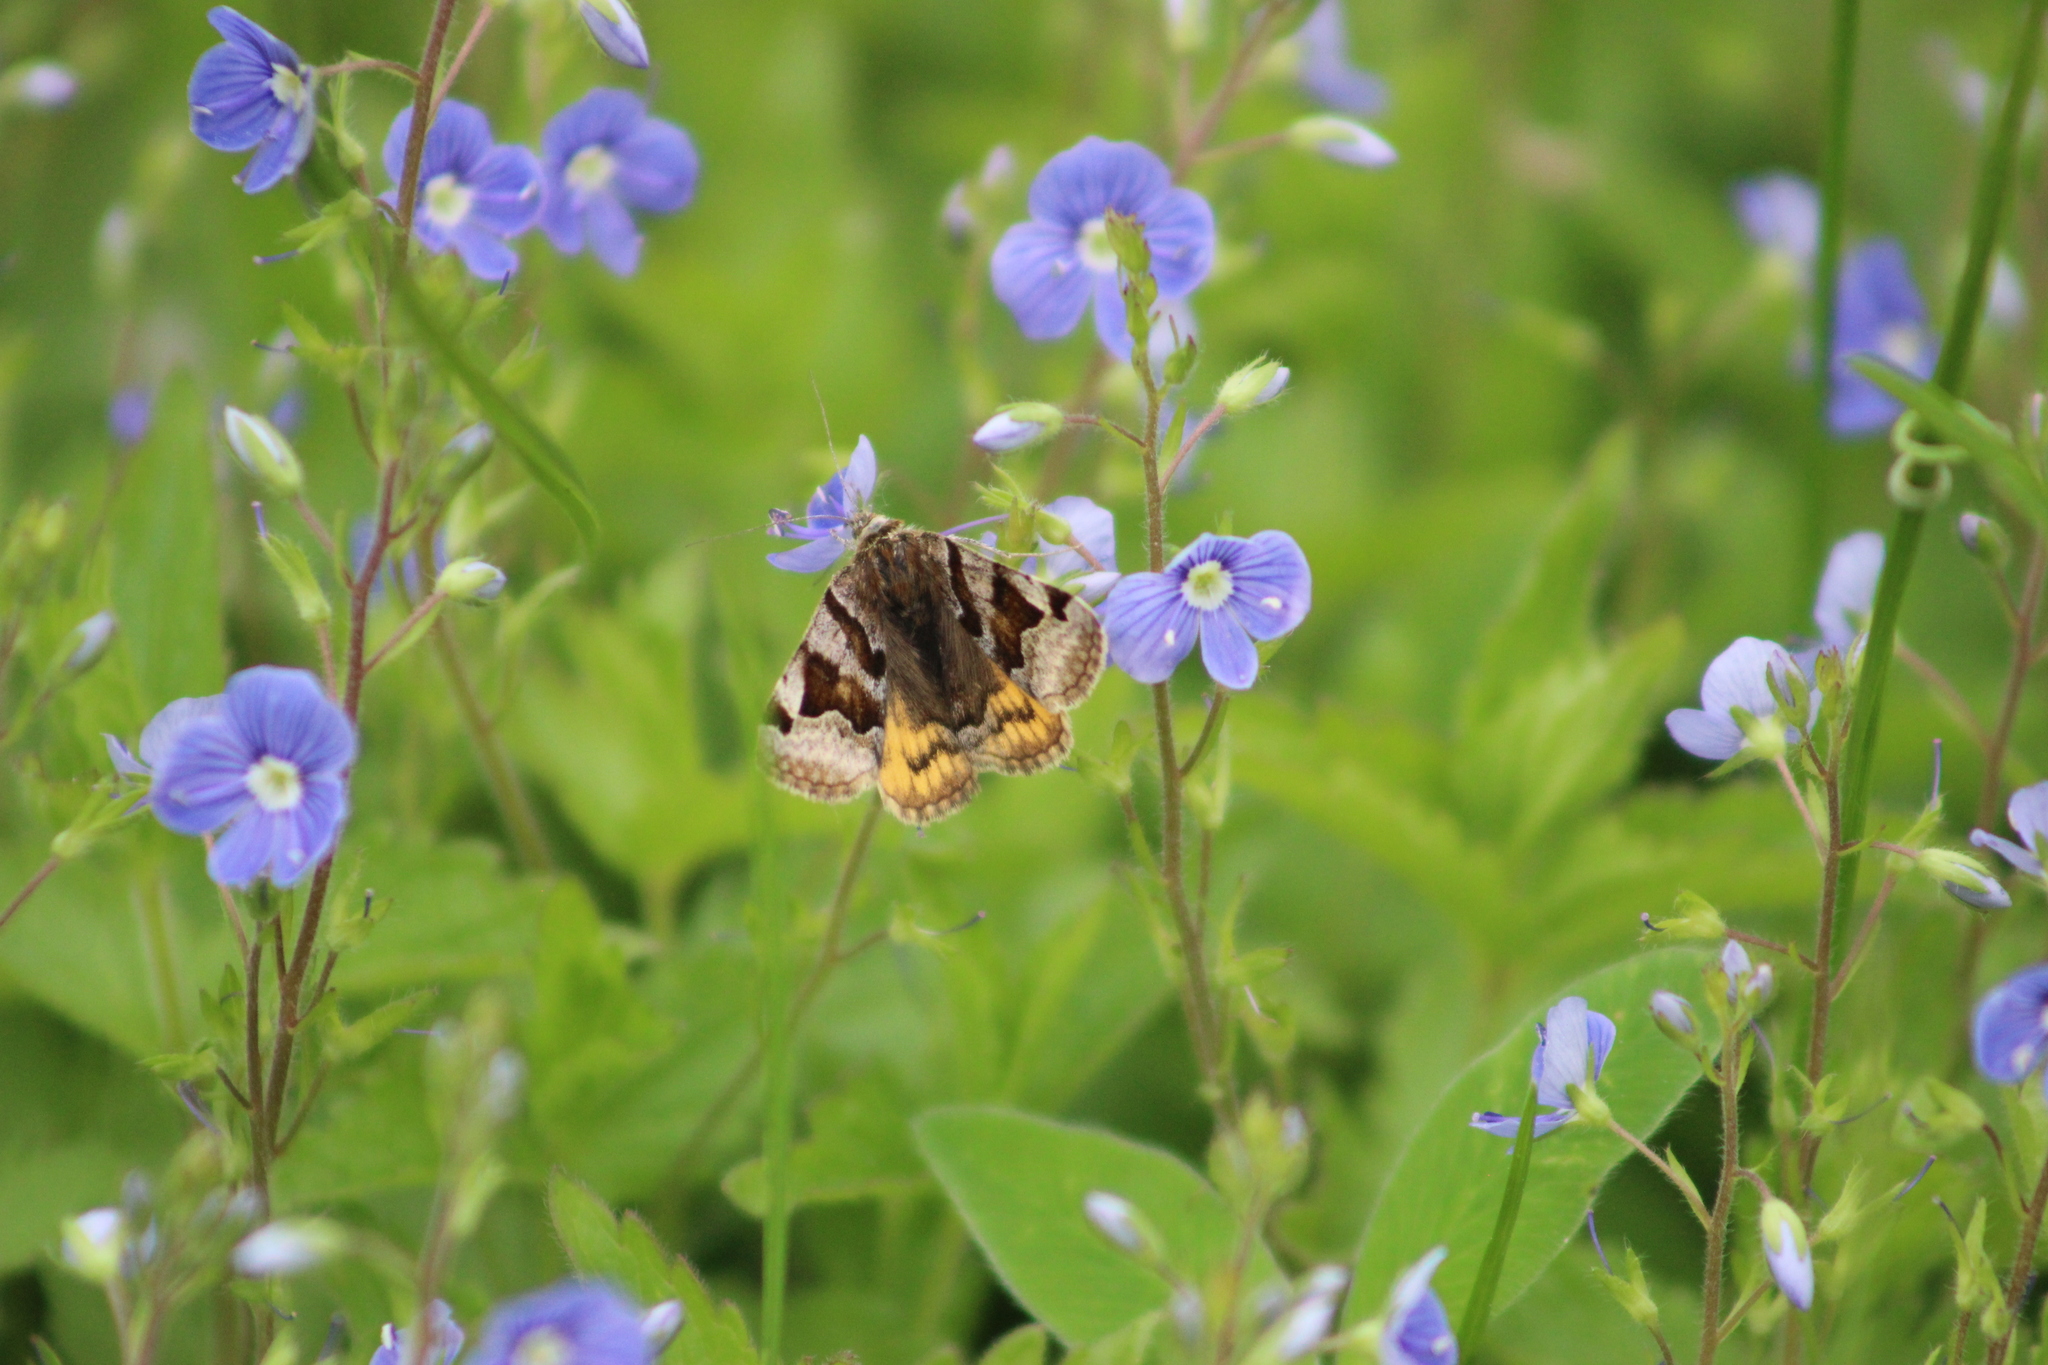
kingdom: Animalia
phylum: Arthropoda
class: Insecta
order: Lepidoptera
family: Erebidae
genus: Euclidia
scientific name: Euclidia glyphica
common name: Burnet companion
